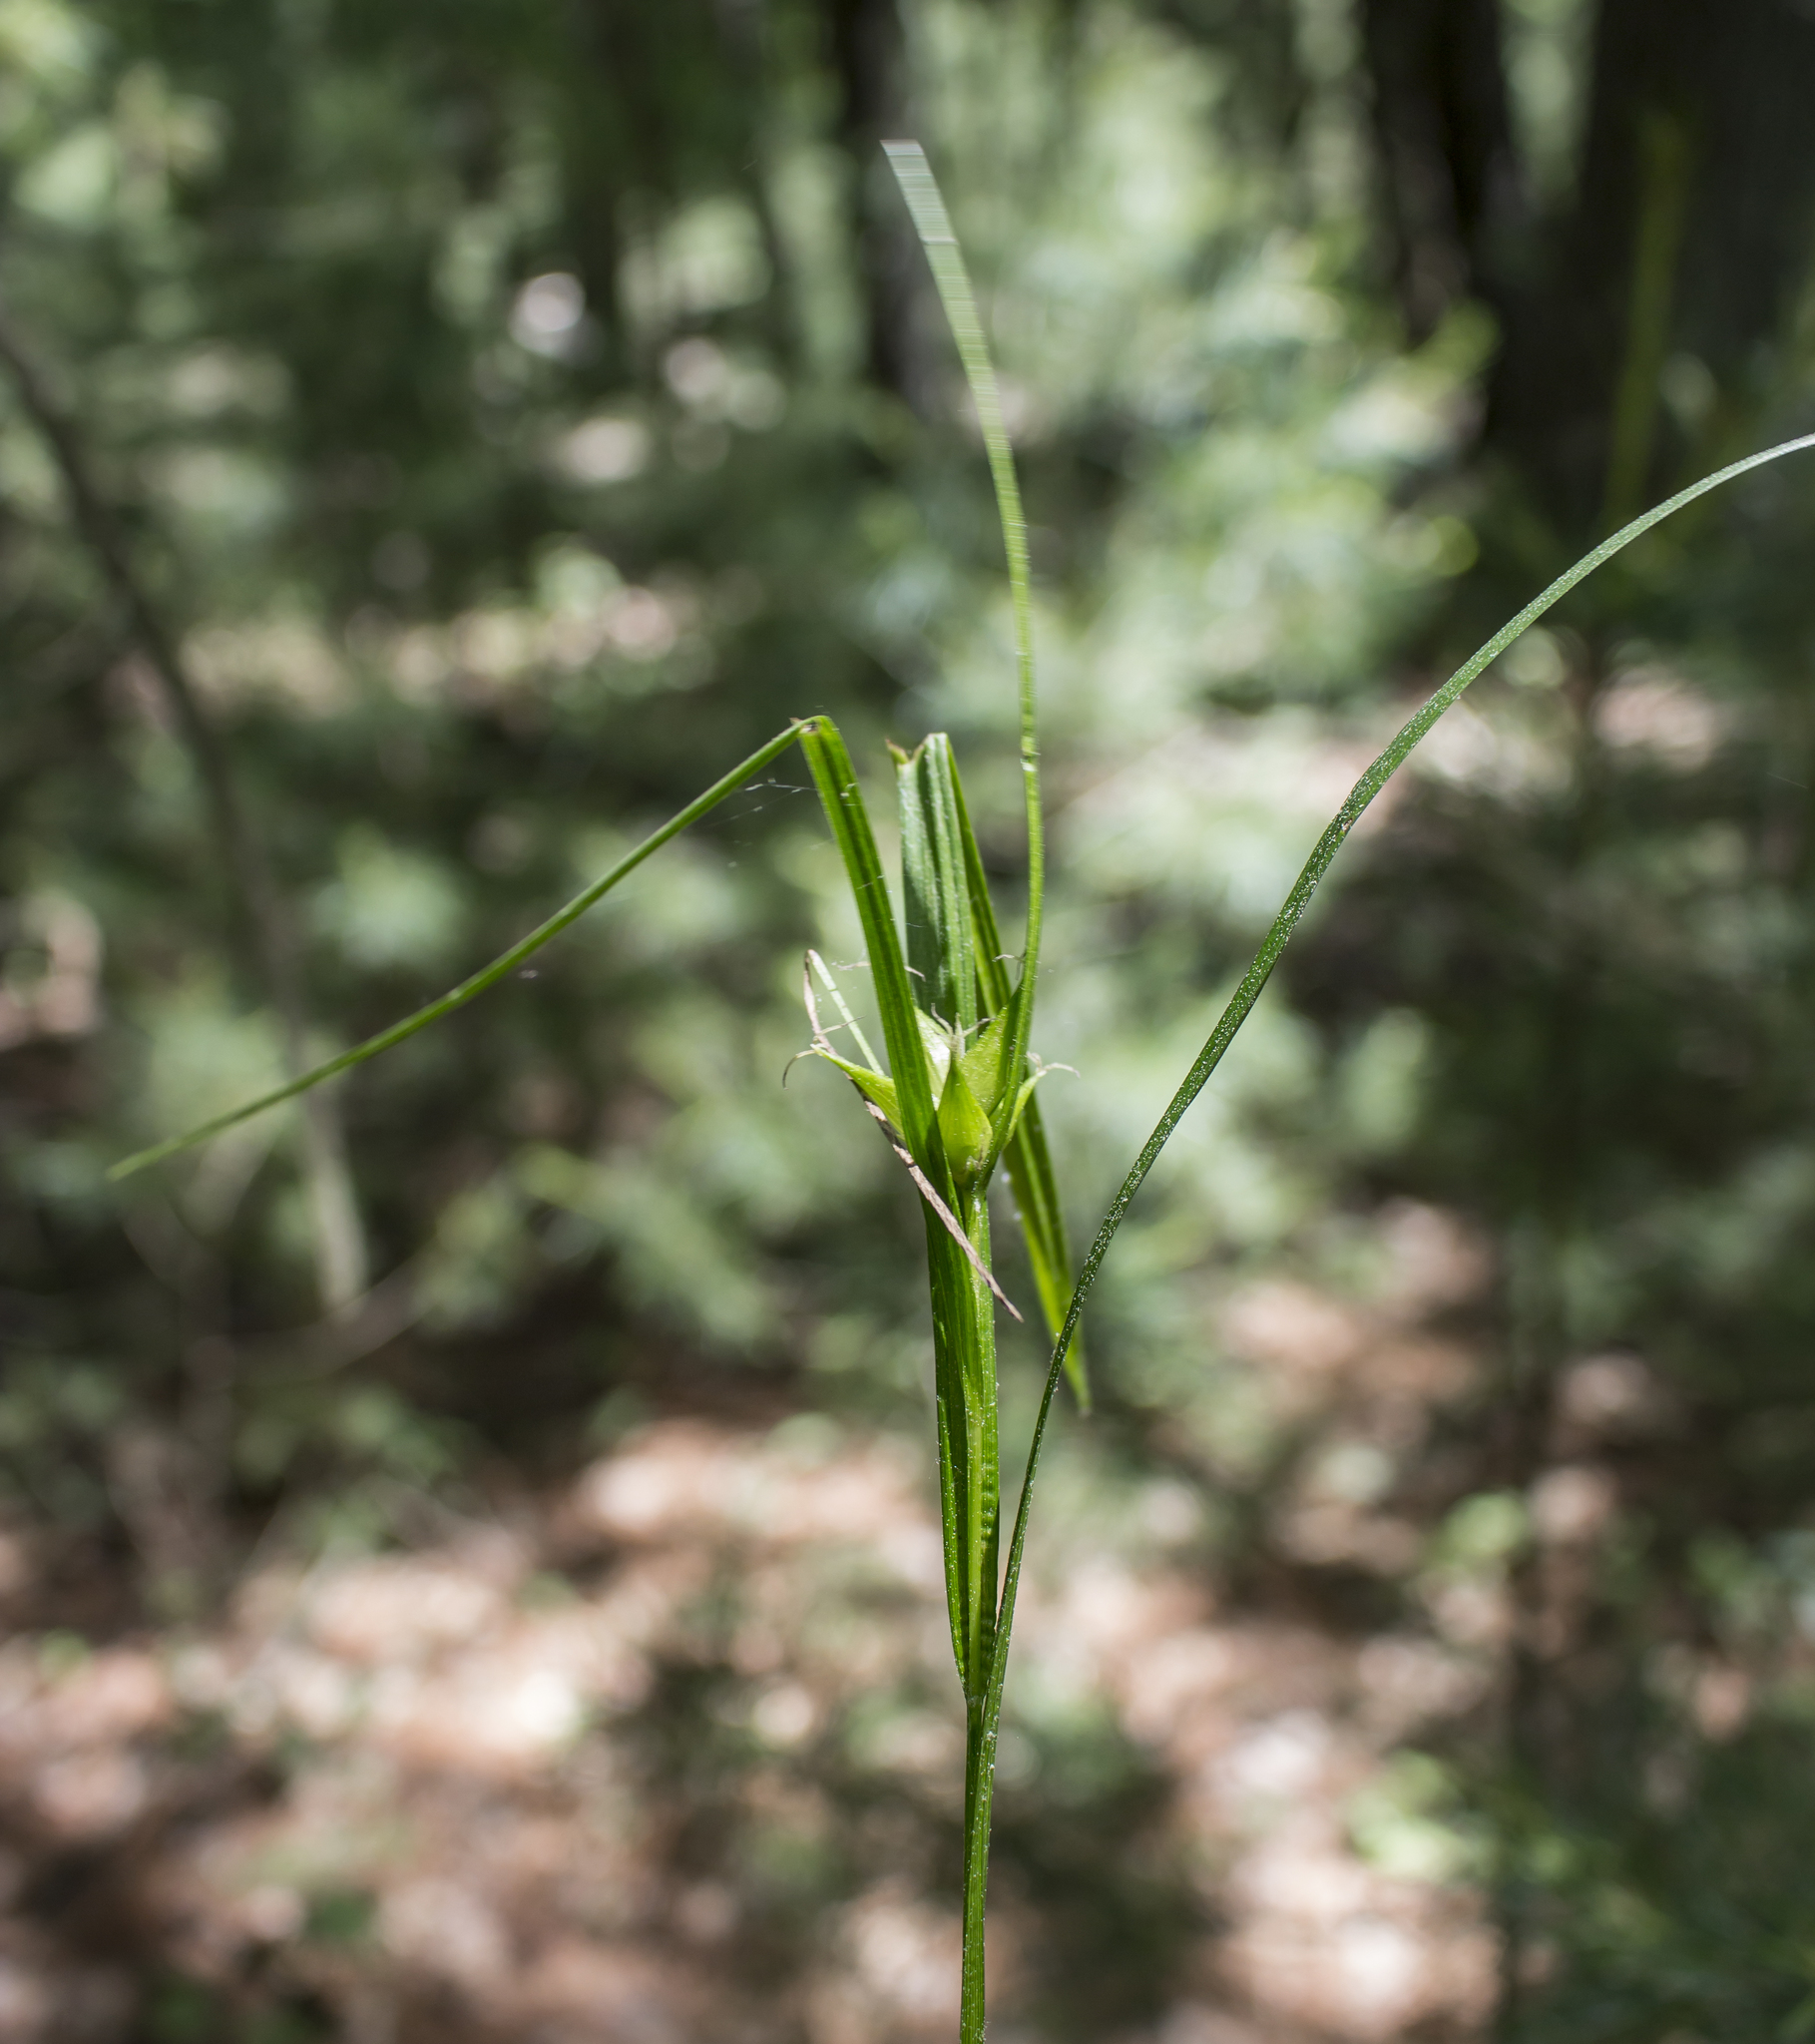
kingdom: Plantae
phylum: Tracheophyta
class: Liliopsida
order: Poales
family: Cyperaceae
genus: Carex
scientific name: Carex intumescens
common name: Greater bladder sedge
